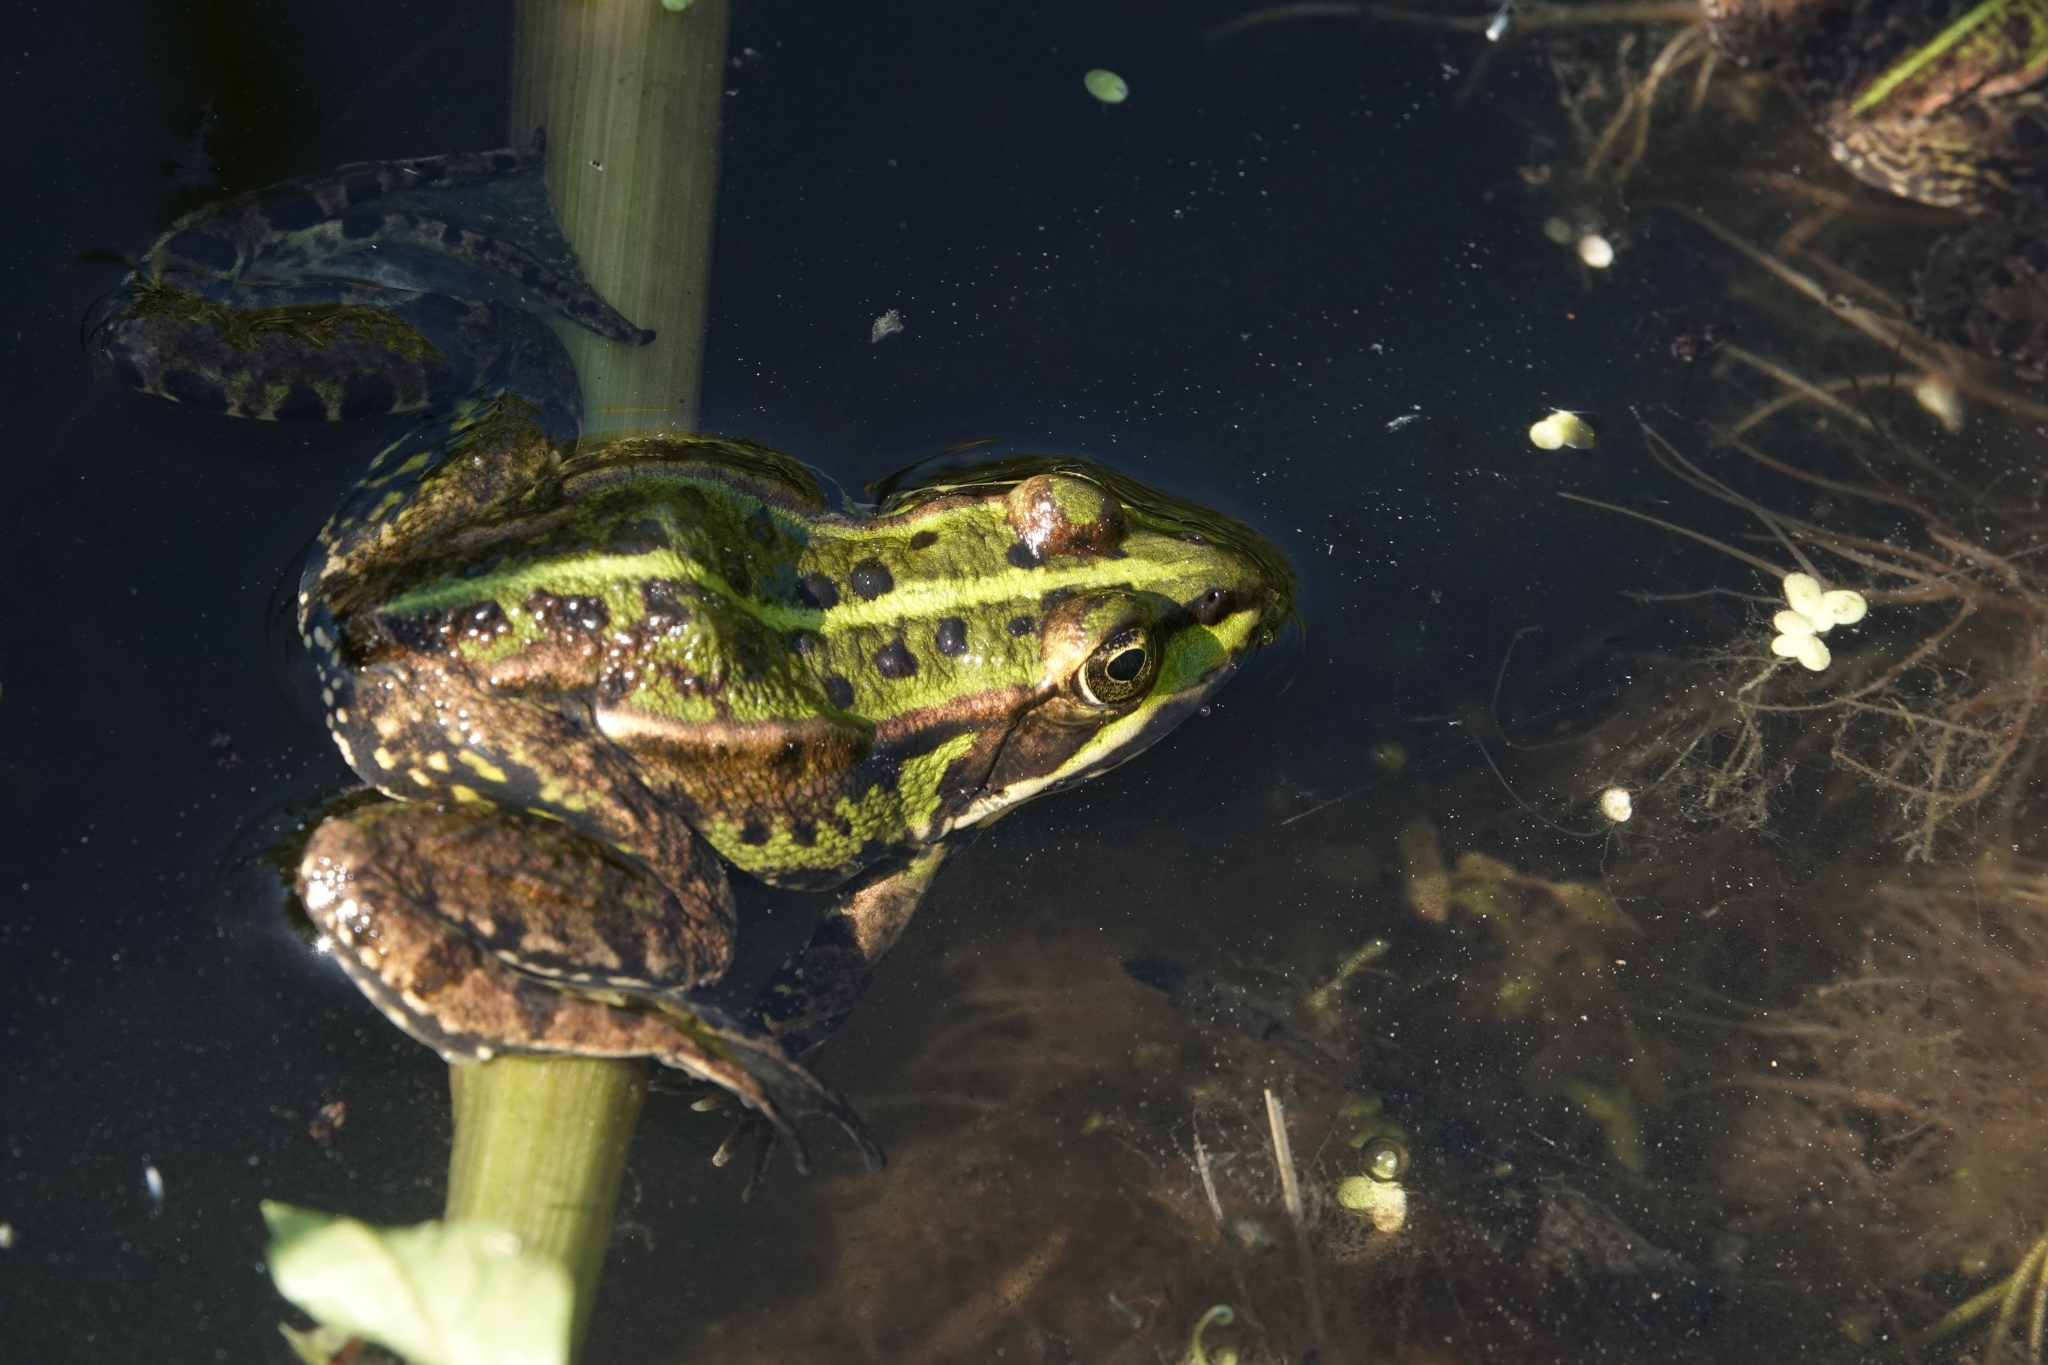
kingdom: Animalia
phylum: Chordata
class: Amphibia
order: Anura
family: Ranidae
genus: Pelophylax
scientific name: Pelophylax lessonae
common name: Pool frog
